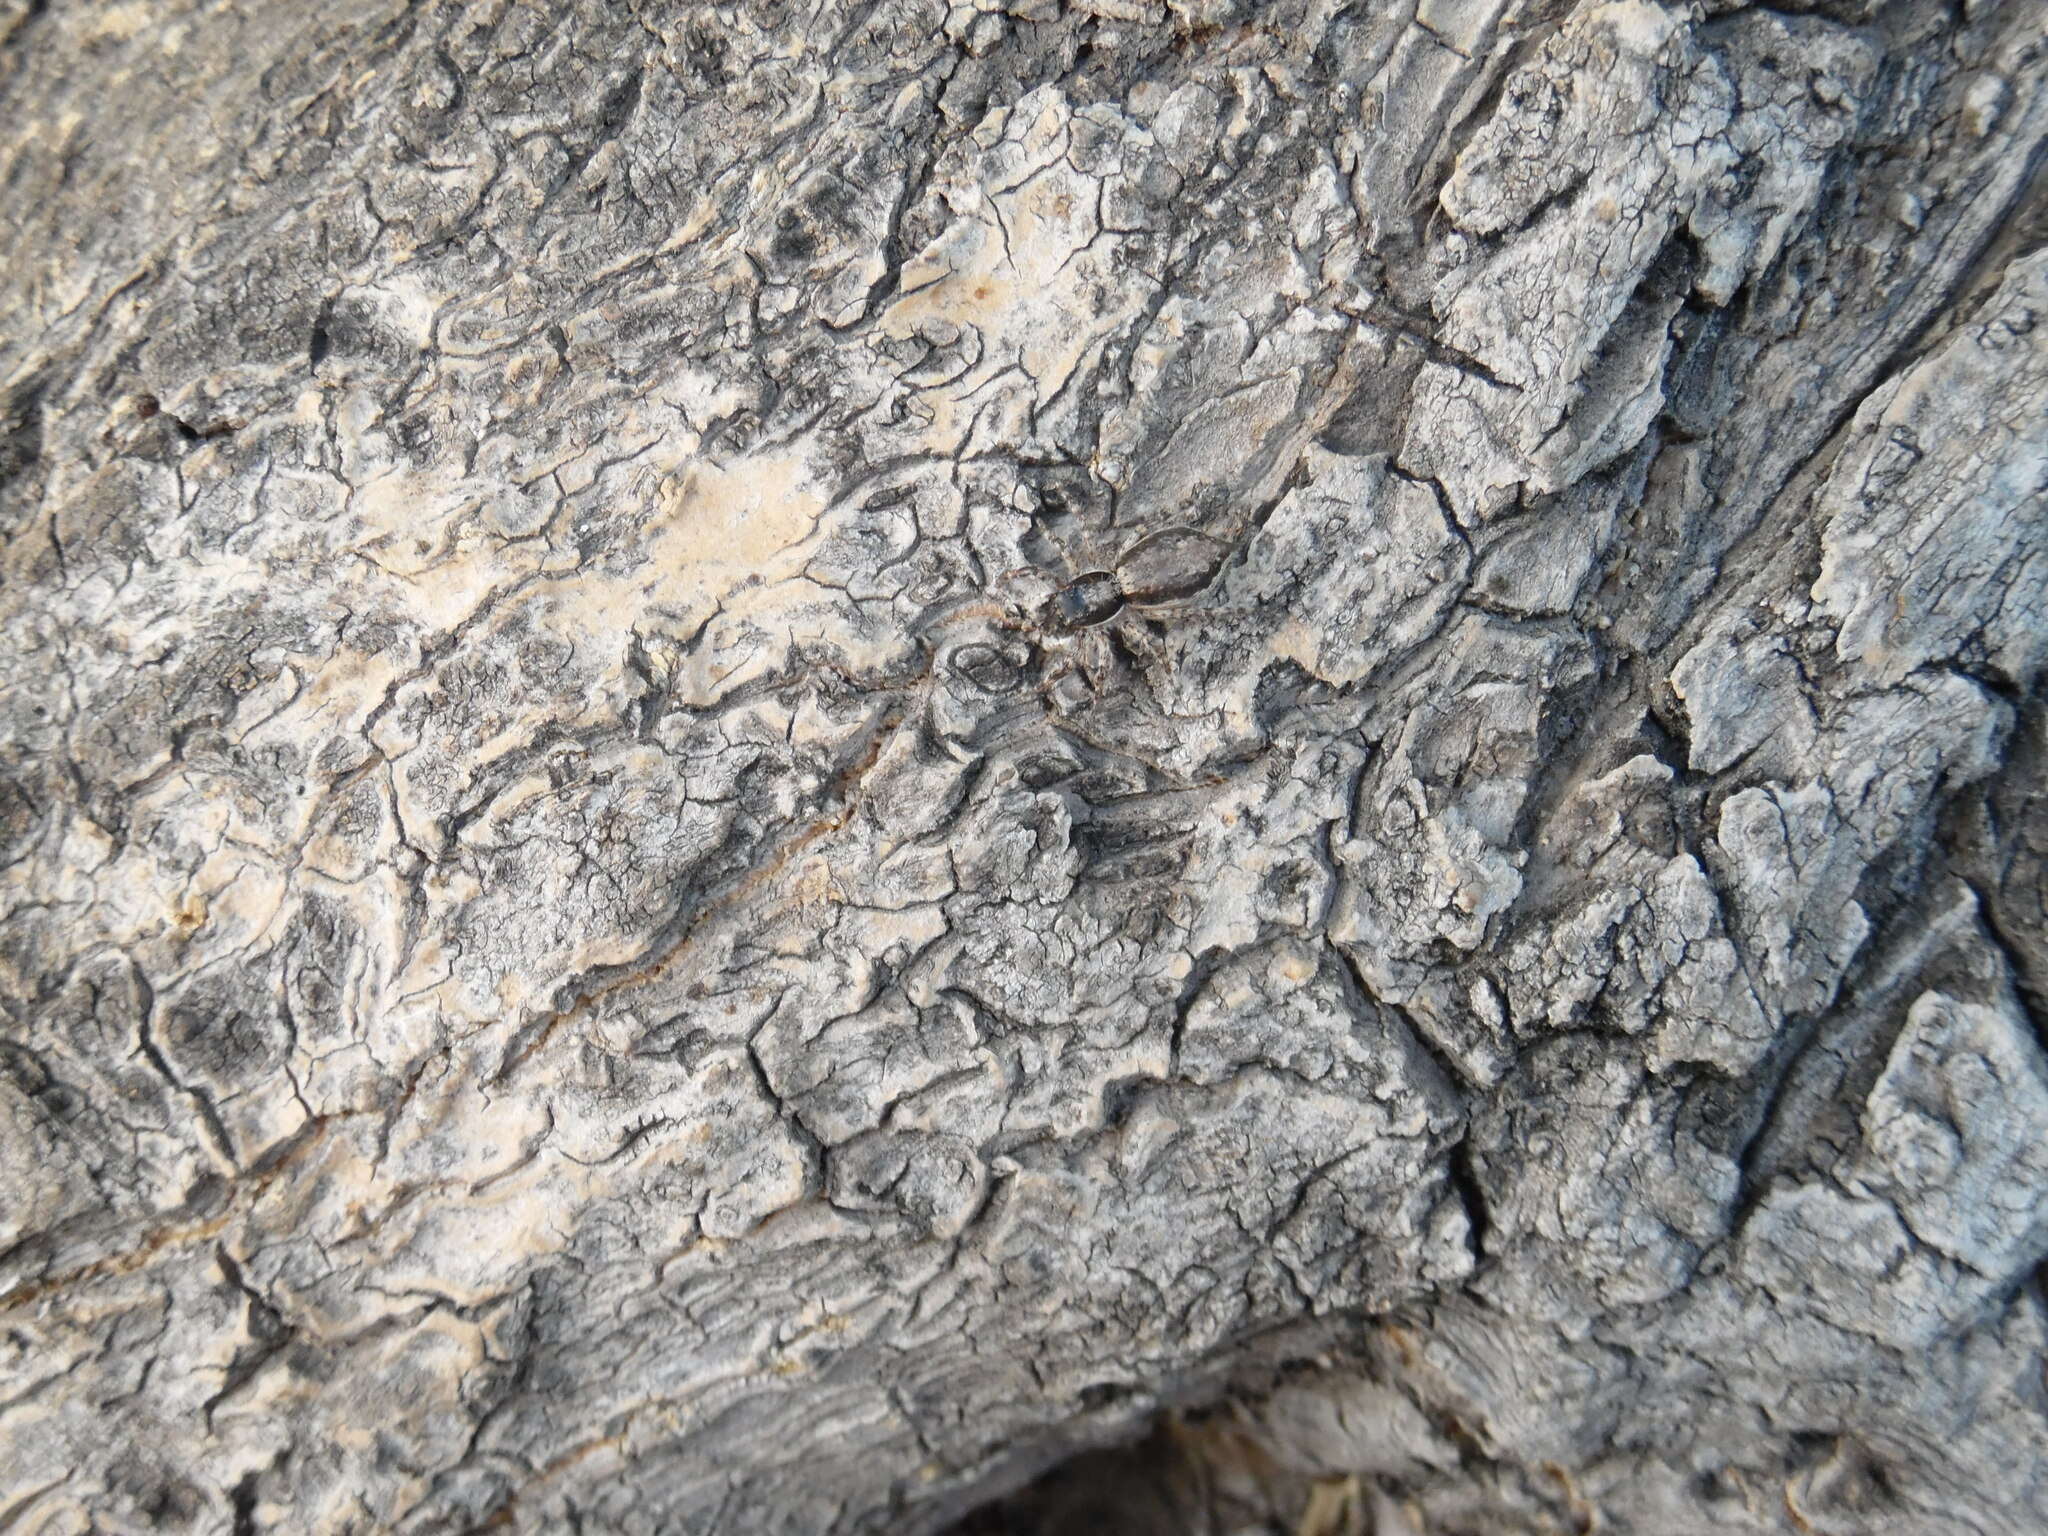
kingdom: Animalia
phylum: Arthropoda
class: Arachnida
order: Araneae
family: Salticidae
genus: Menemerus
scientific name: Menemerus bivittatus
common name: Gray wall jumper
